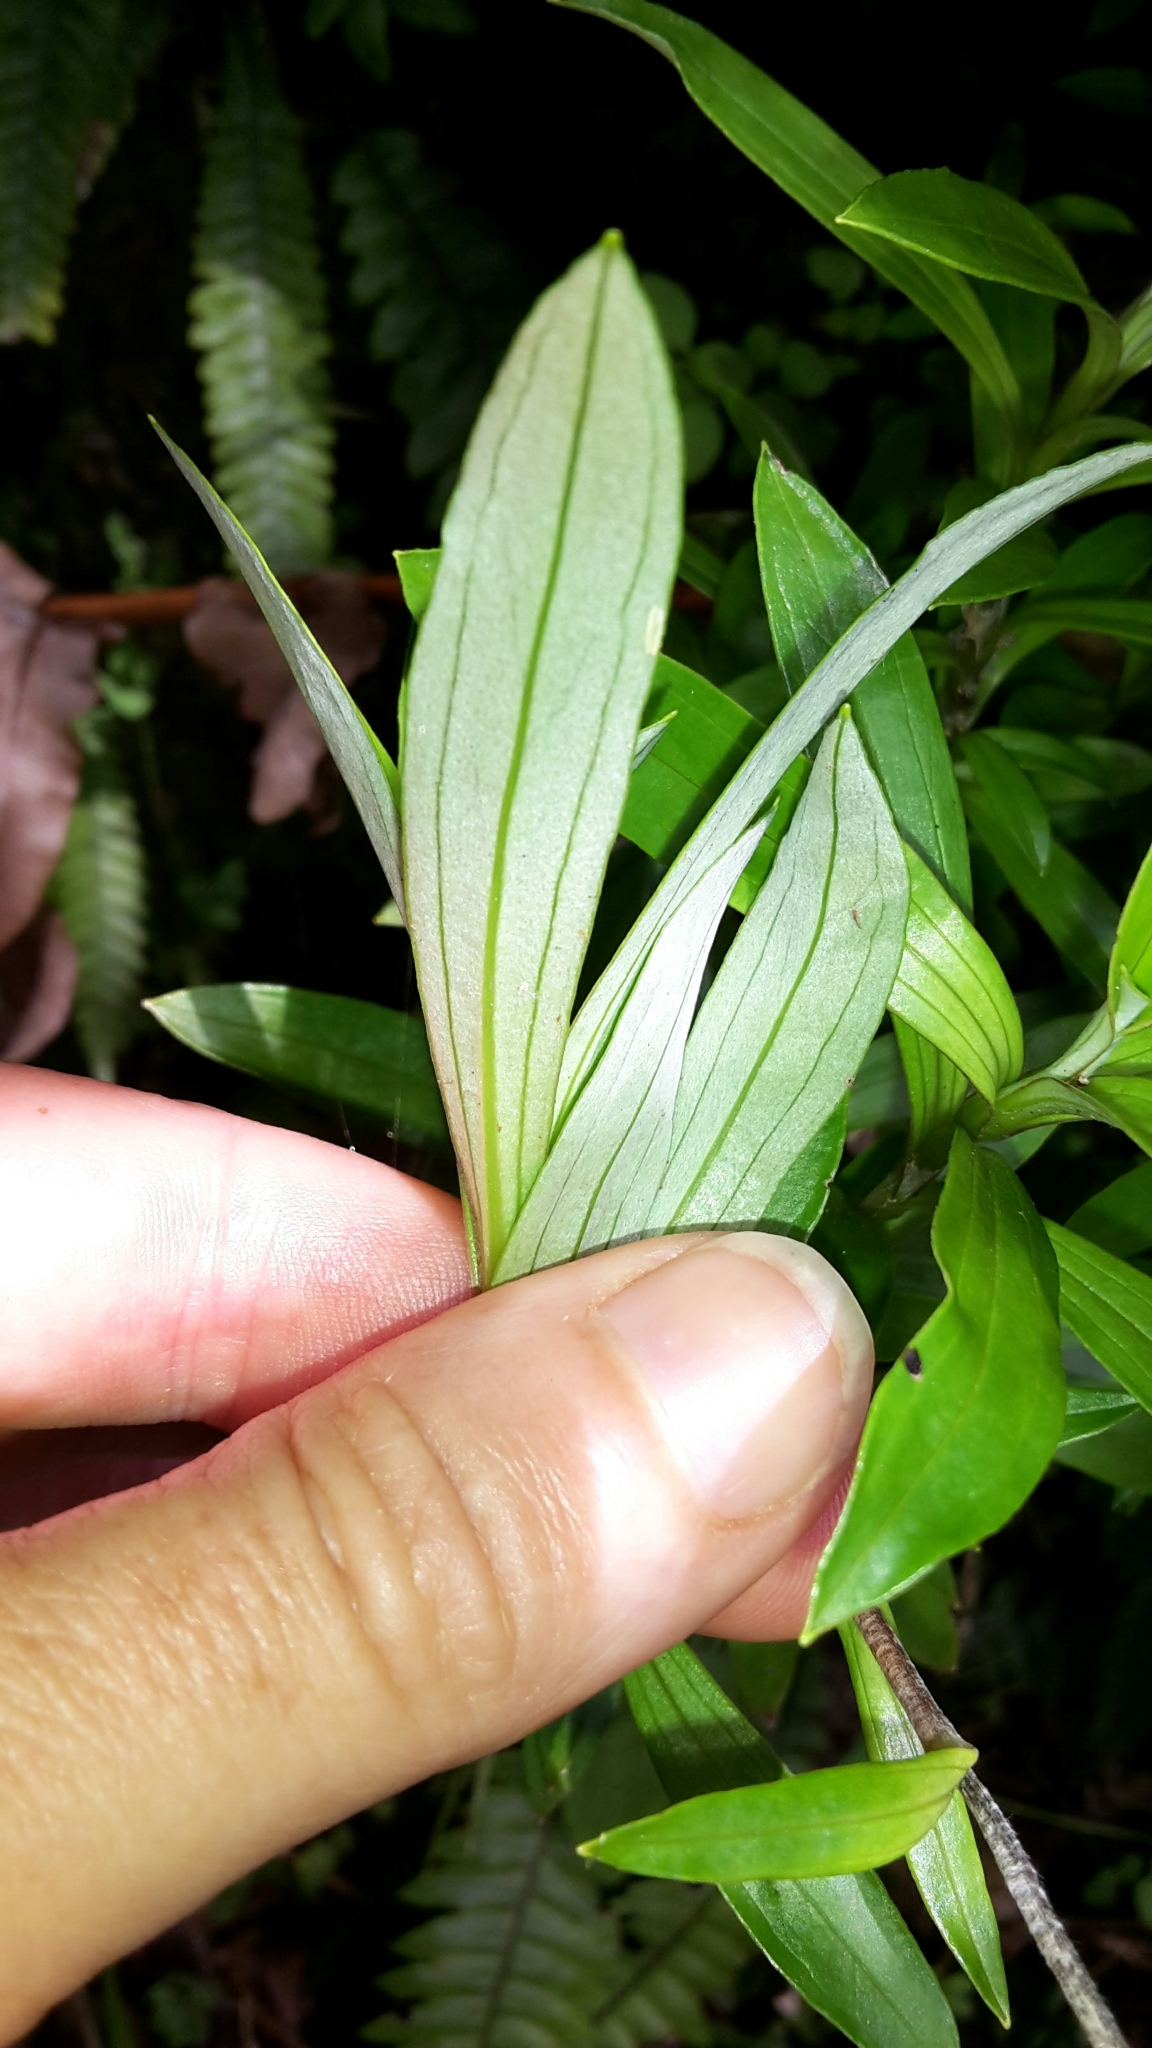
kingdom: Plantae
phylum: Tracheophyta
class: Magnoliopsida
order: Asterales
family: Asteraceae
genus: Anaphalioides
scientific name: Anaphalioides trinervis
